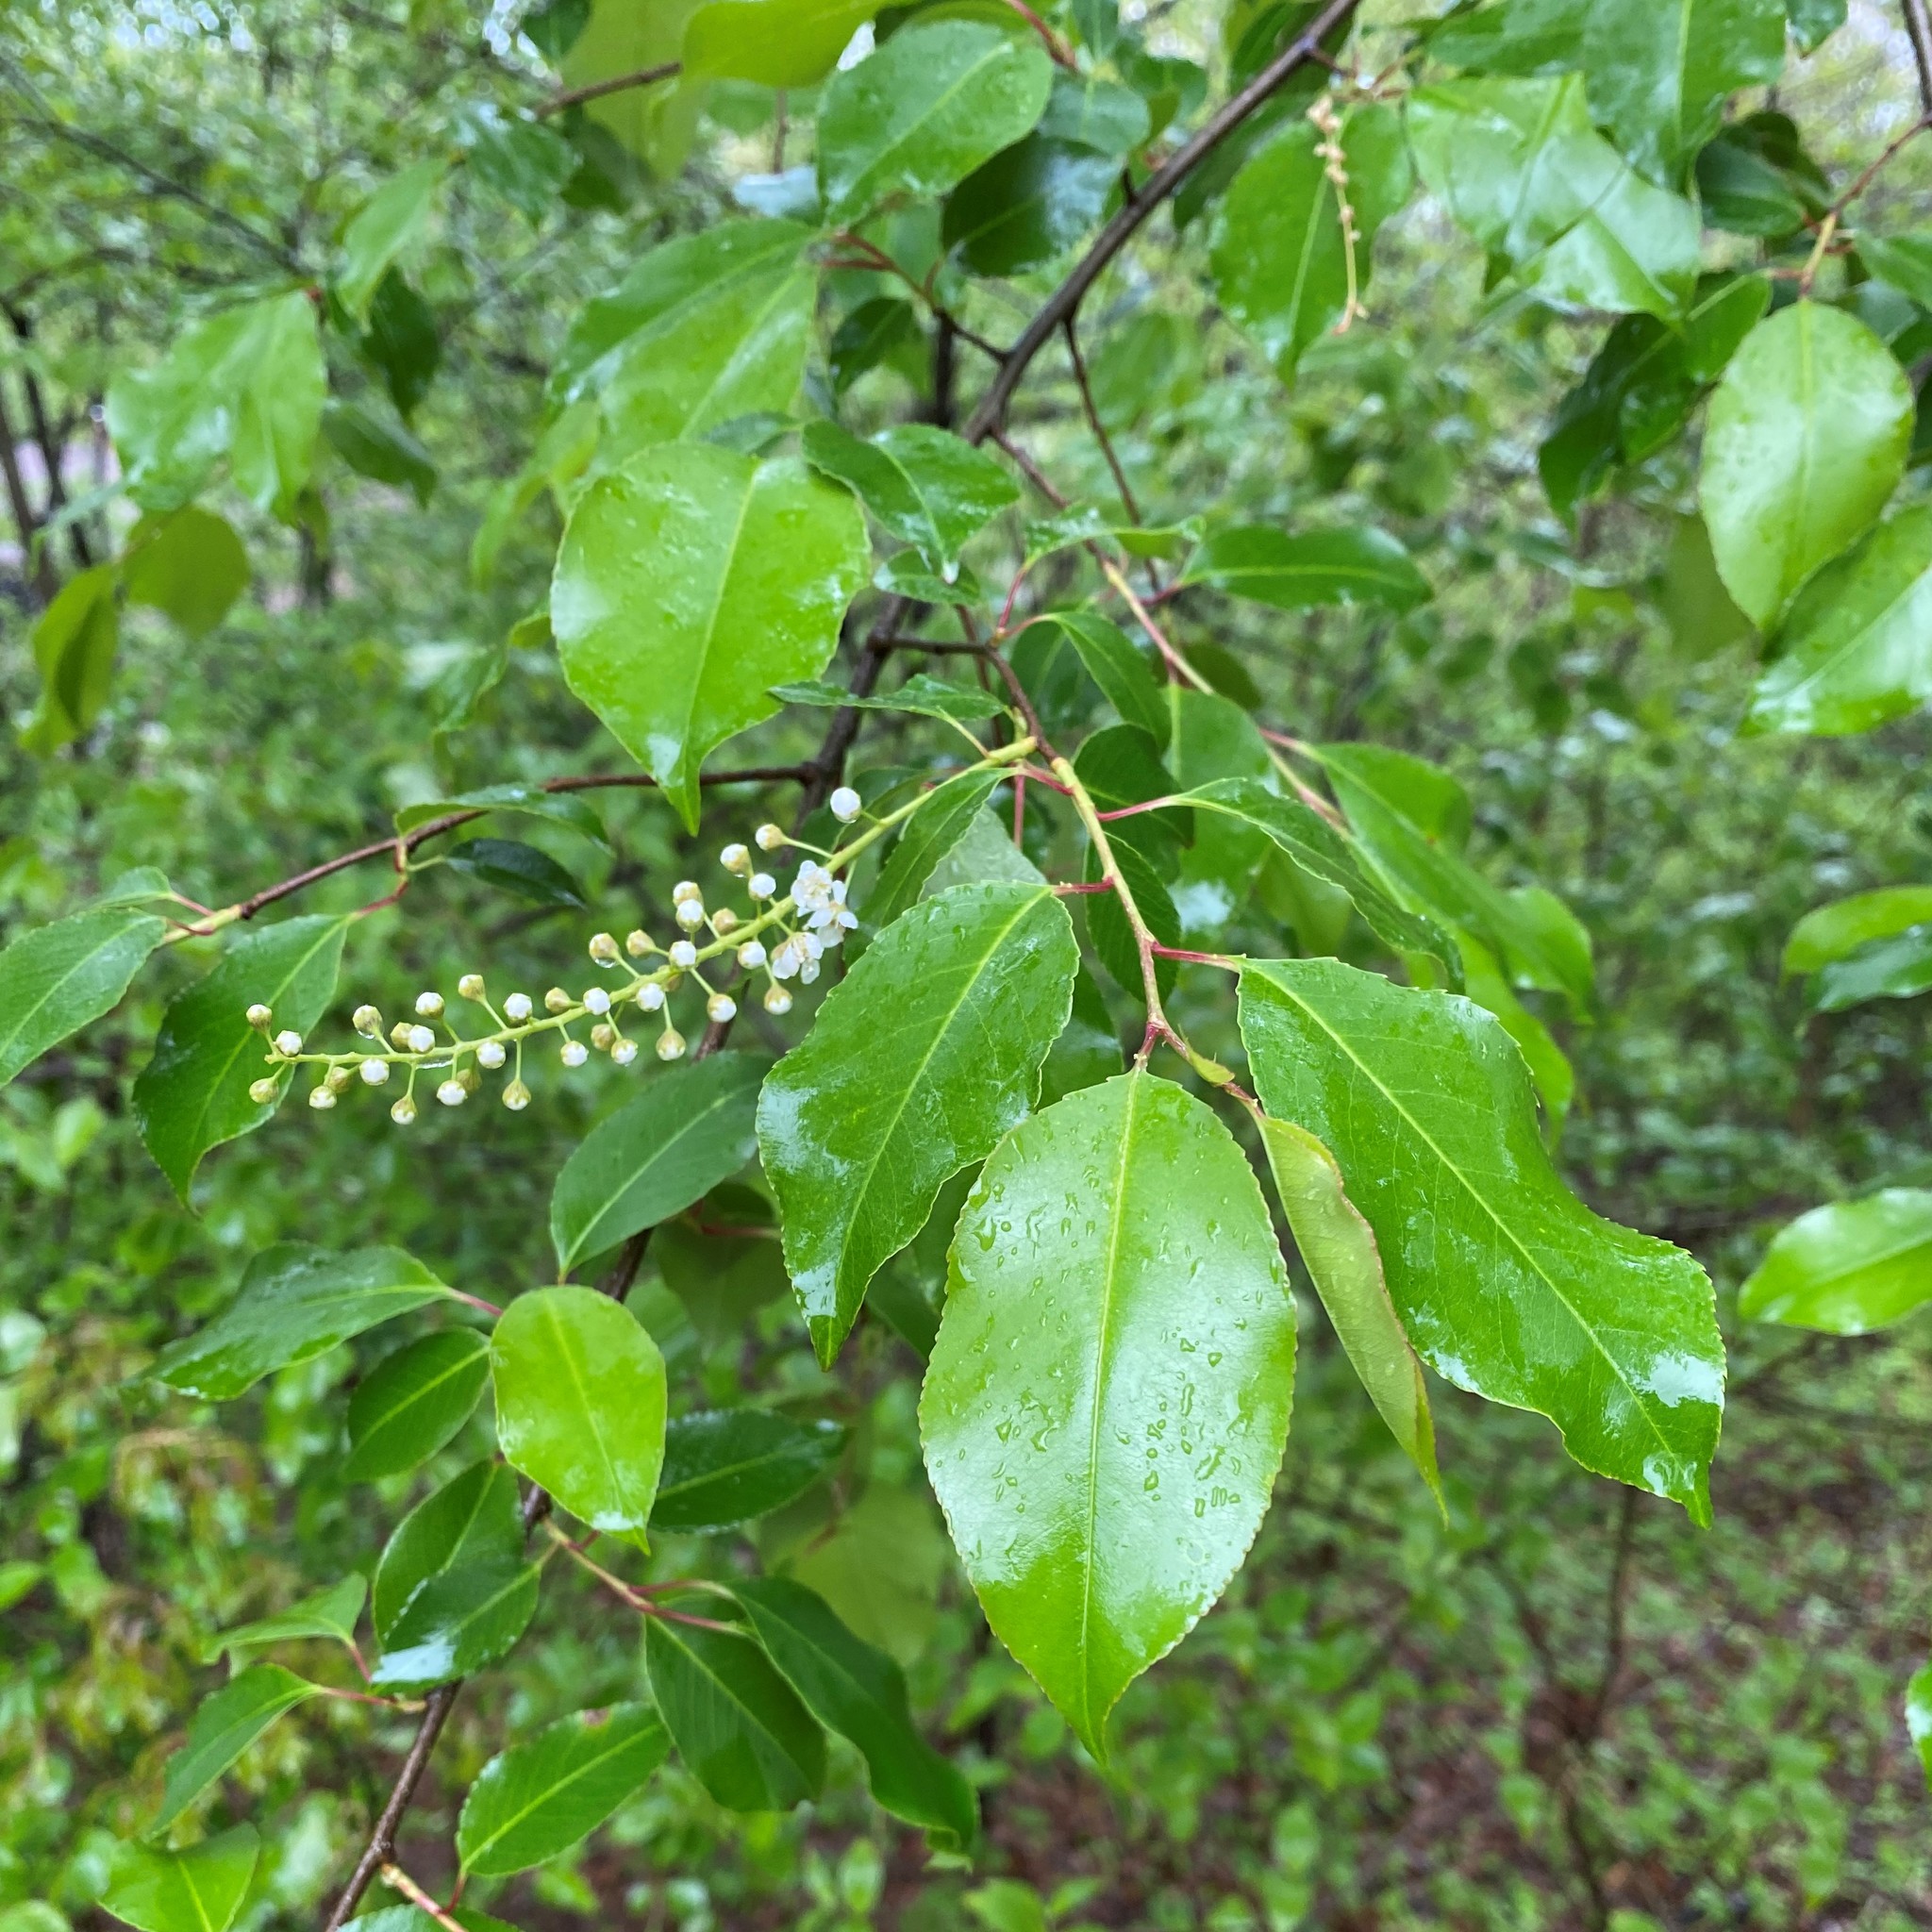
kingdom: Plantae
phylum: Tracheophyta
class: Magnoliopsida
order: Rosales
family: Rosaceae
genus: Prunus
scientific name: Prunus serotina
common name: Black cherry
